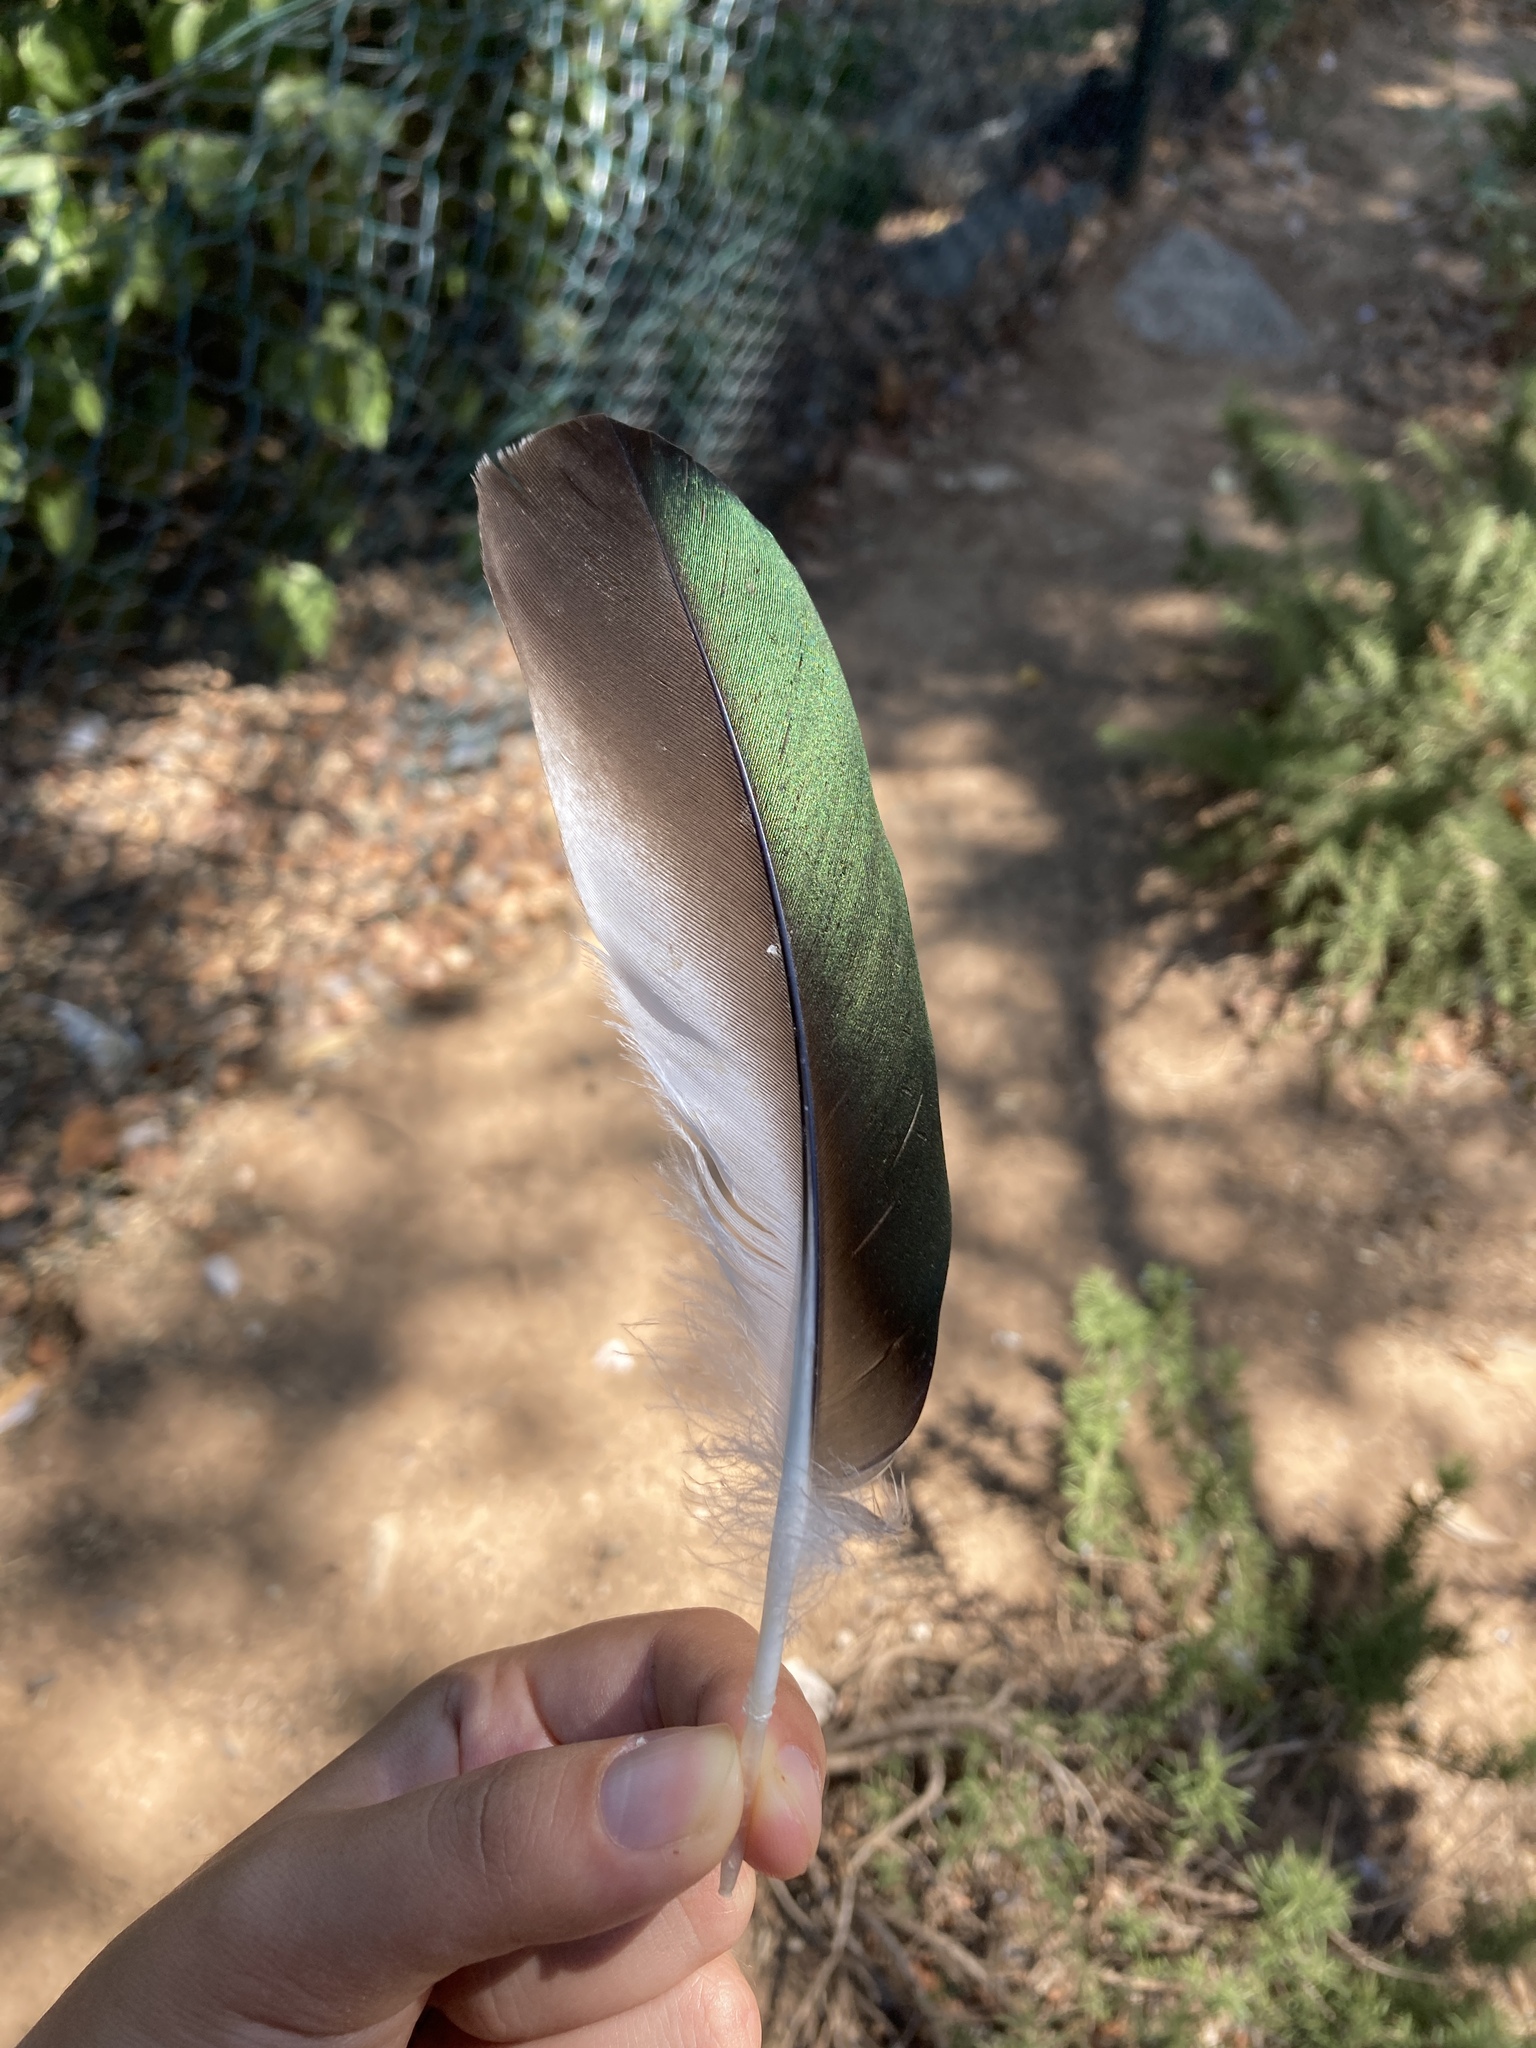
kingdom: Animalia
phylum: Chordata
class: Aves
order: Anseriformes
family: Anatidae
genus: Tadorna
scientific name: Tadorna ferruginea
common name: Ruddy shelduck
